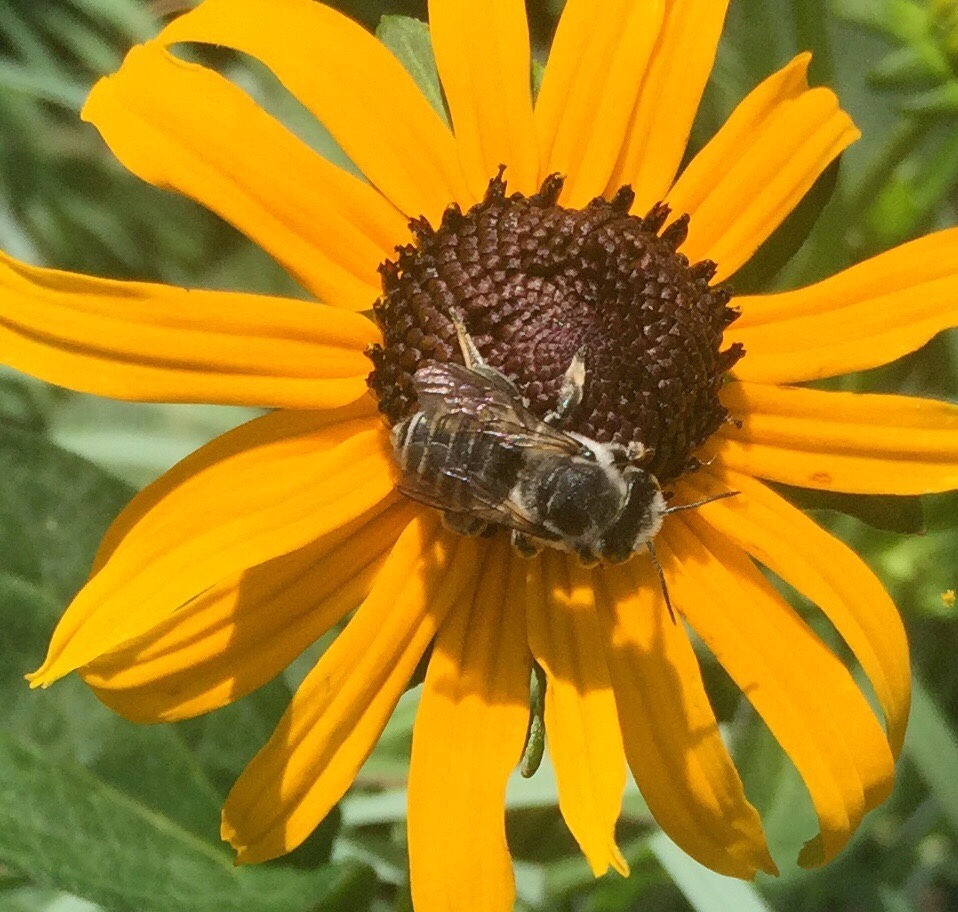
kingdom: Animalia
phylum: Arthropoda
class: Insecta
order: Hymenoptera
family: Megachilidae
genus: Megachile
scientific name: Megachile
